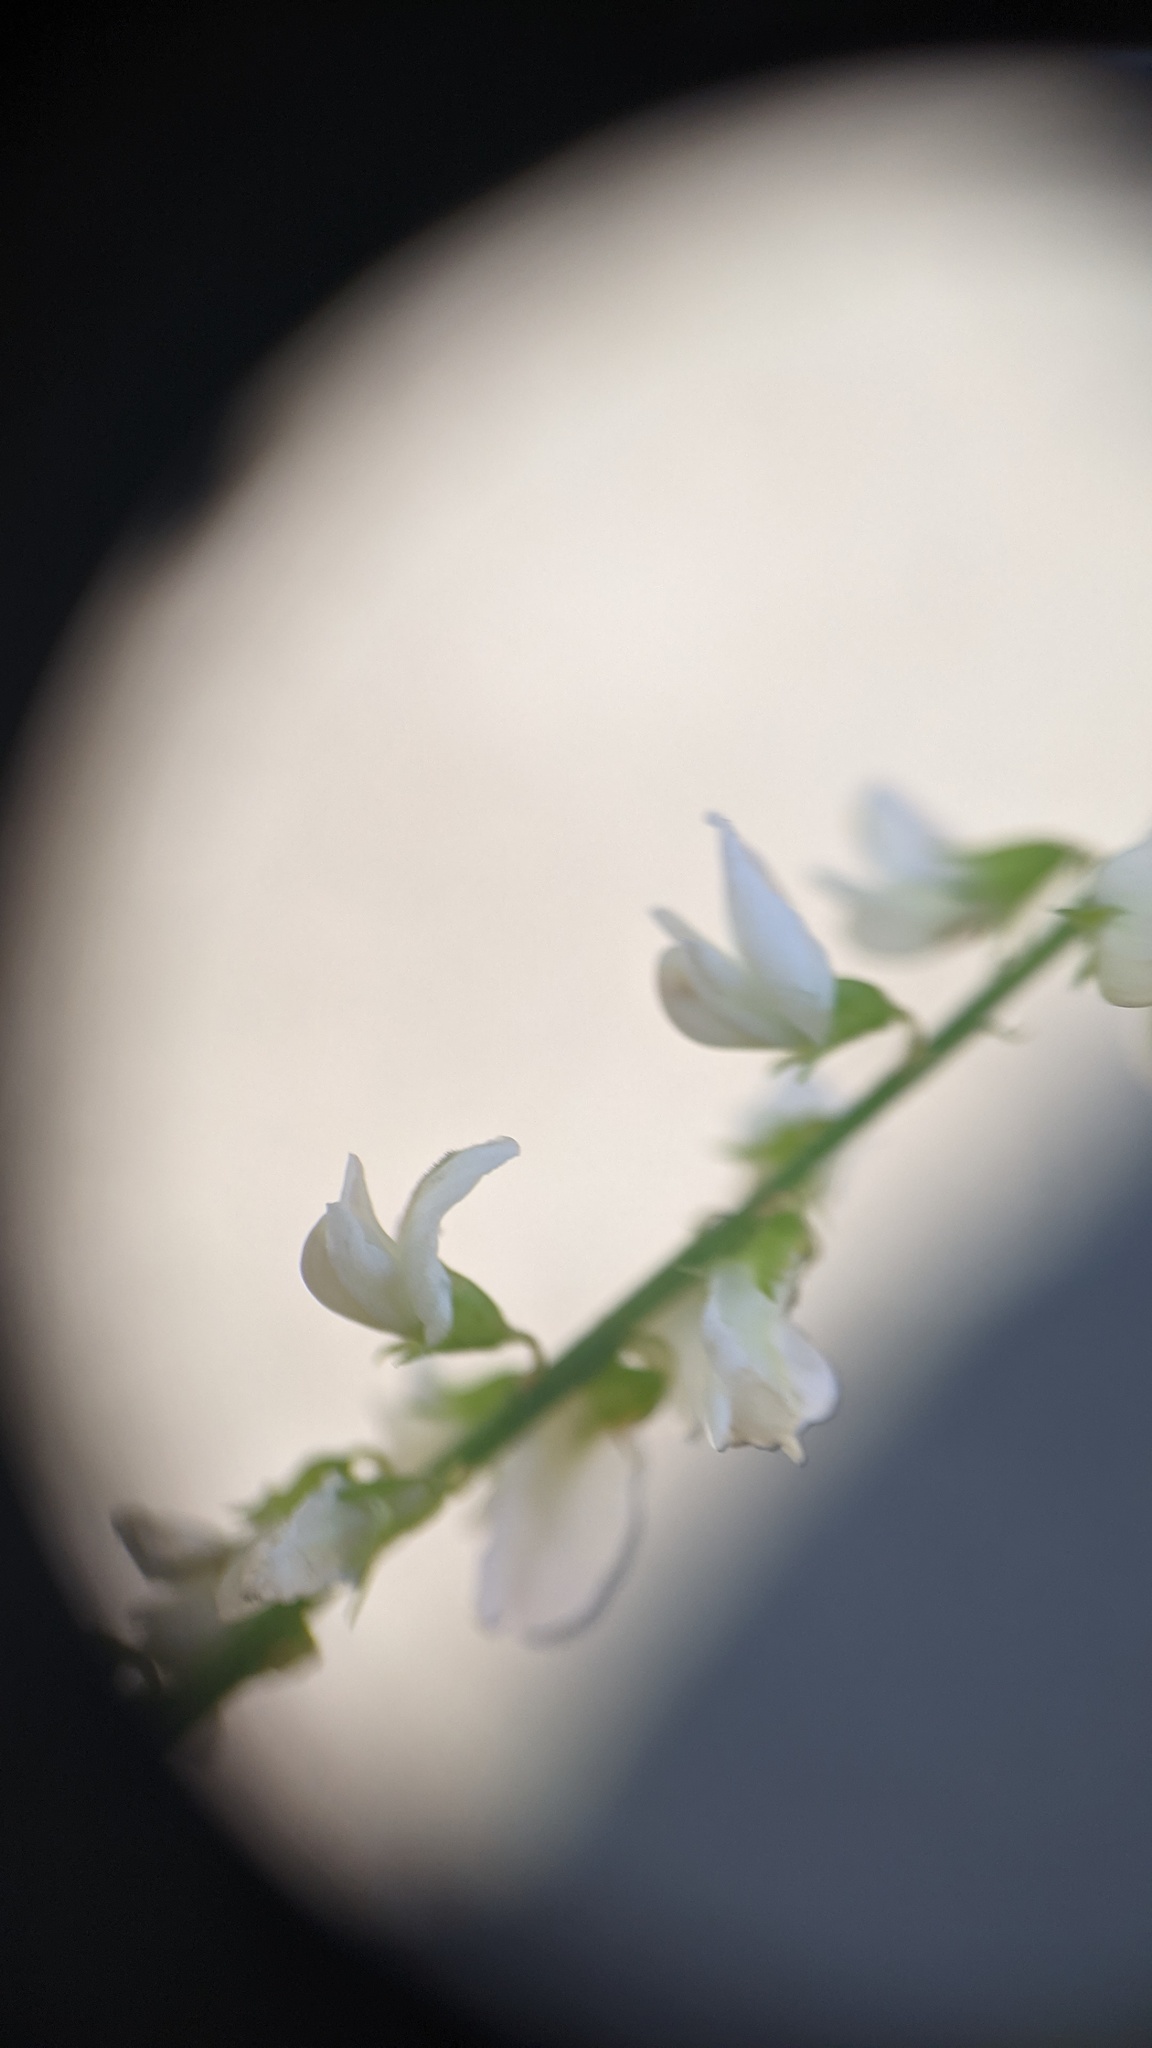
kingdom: Plantae
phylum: Tracheophyta
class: Magnoliopsida
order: Fabales
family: Fabaceae
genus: Melilotus
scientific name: Melilotus albus
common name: White melilot
